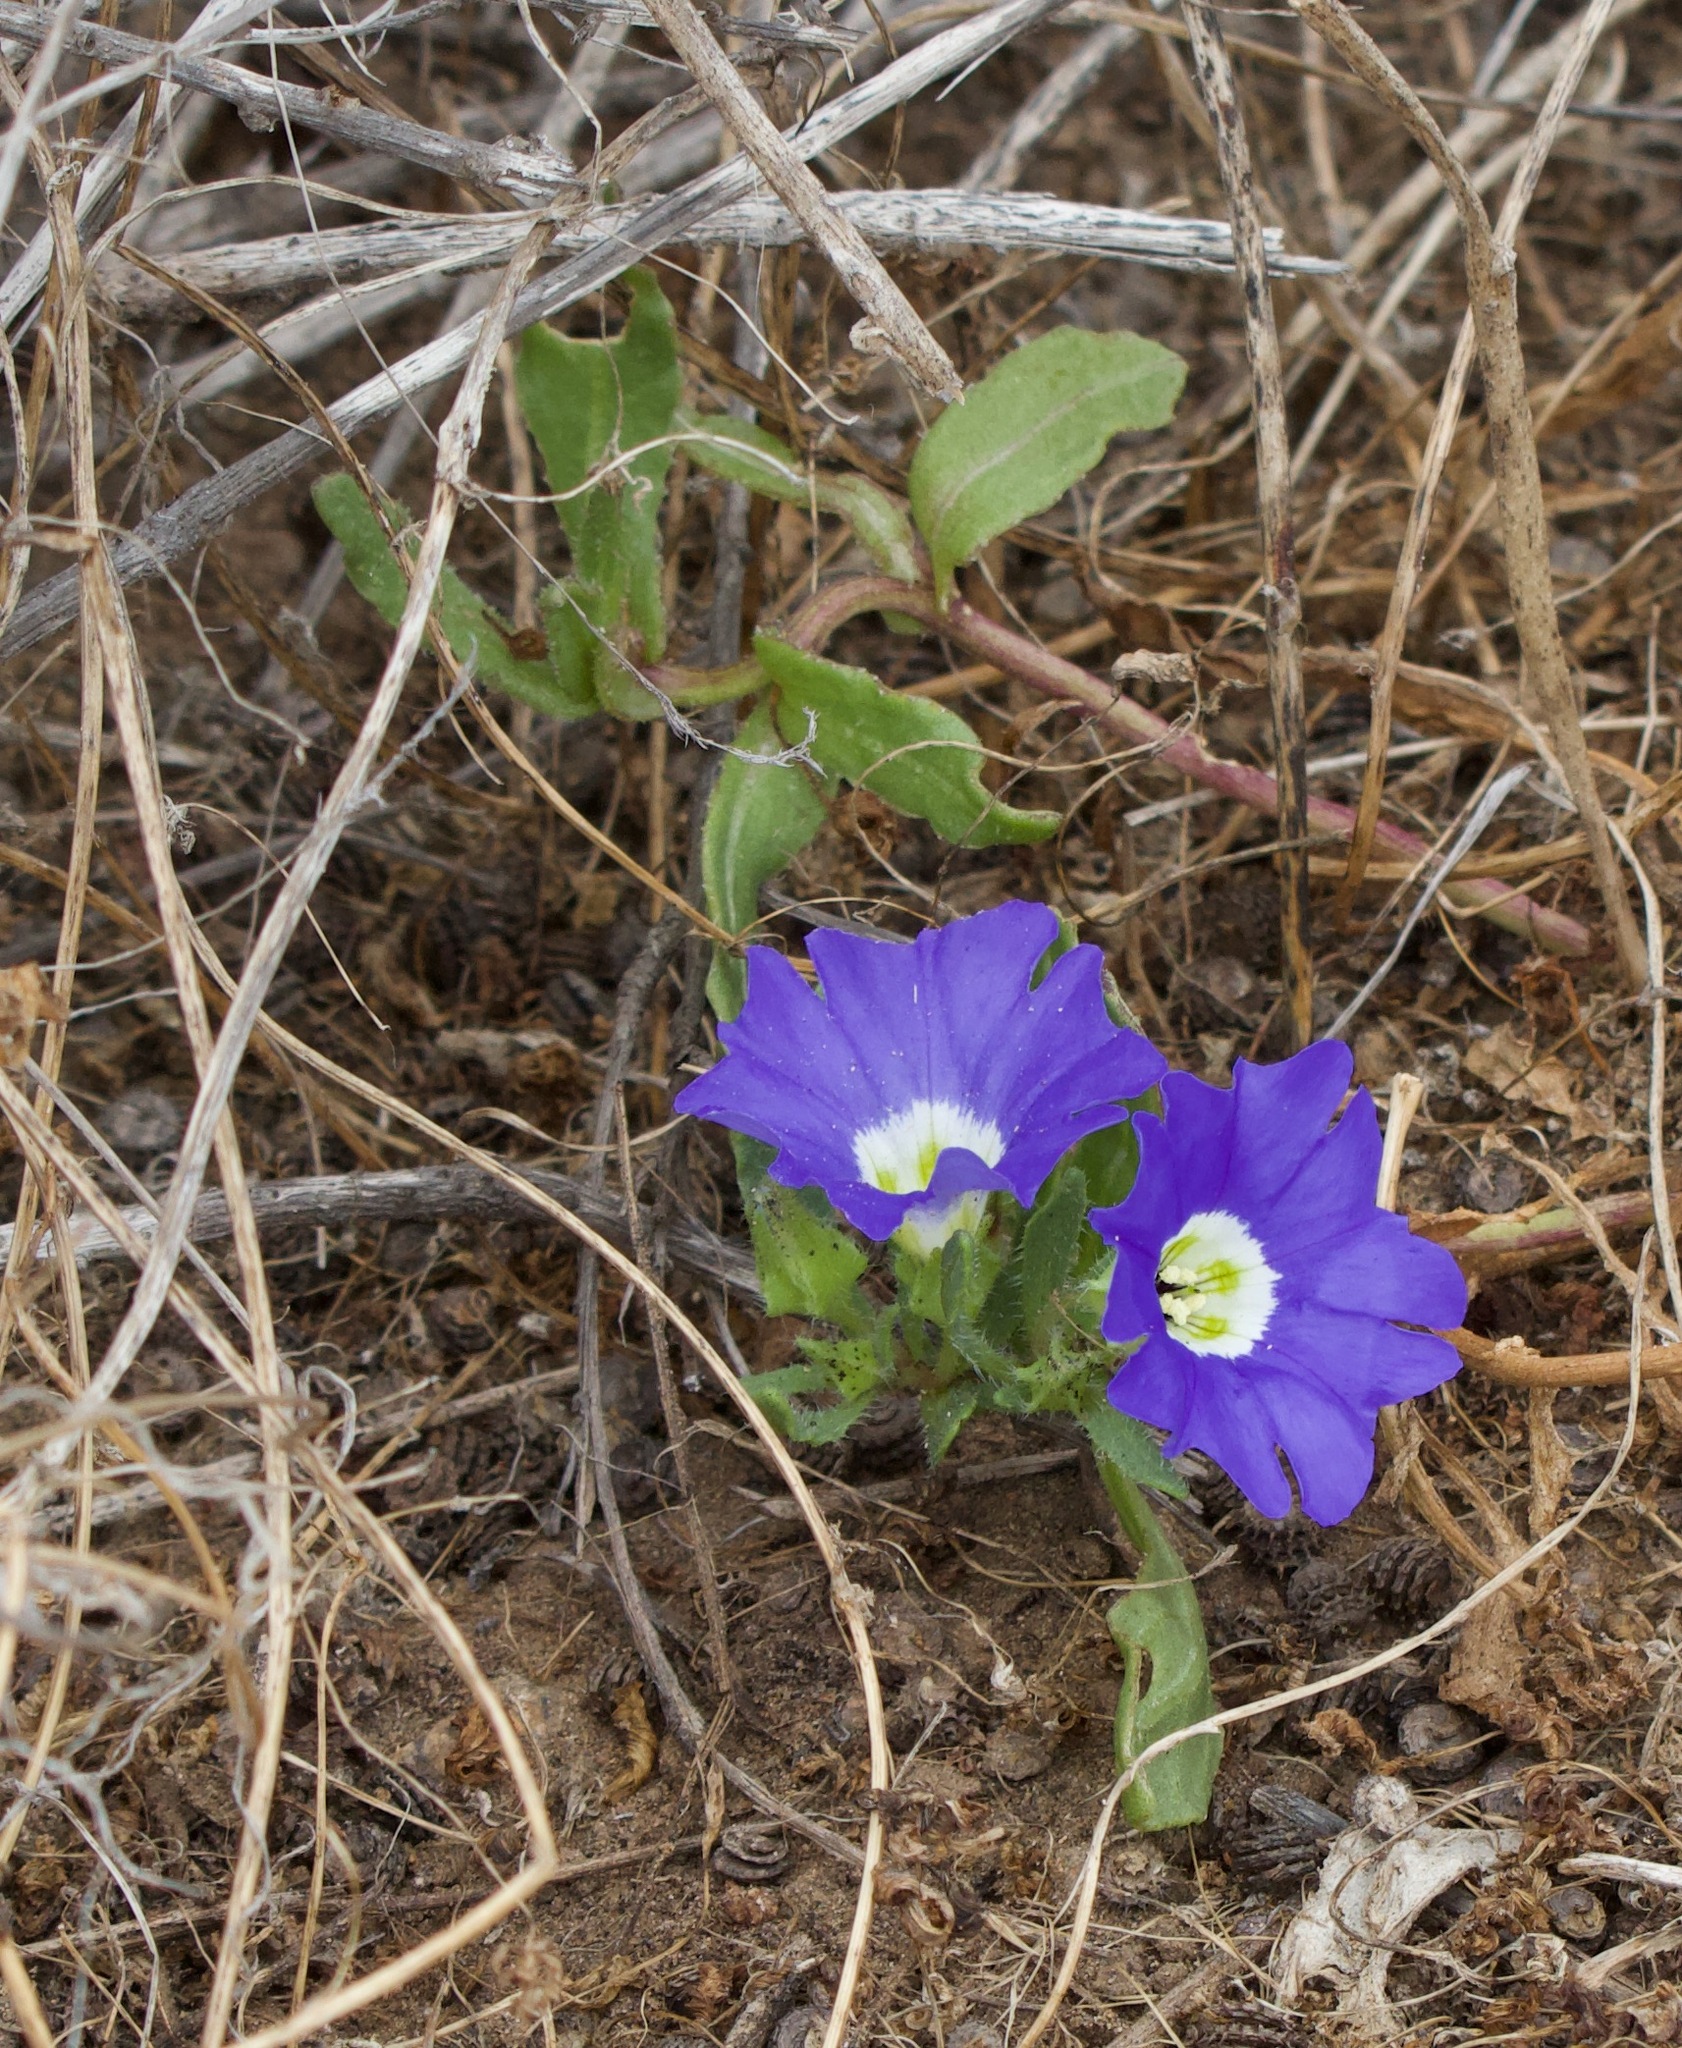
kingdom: Plantae
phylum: Tracheophyta
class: Magnoliopsida
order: Solanales
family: Solanaceae
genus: Nolana
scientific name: Nolana acuminata
